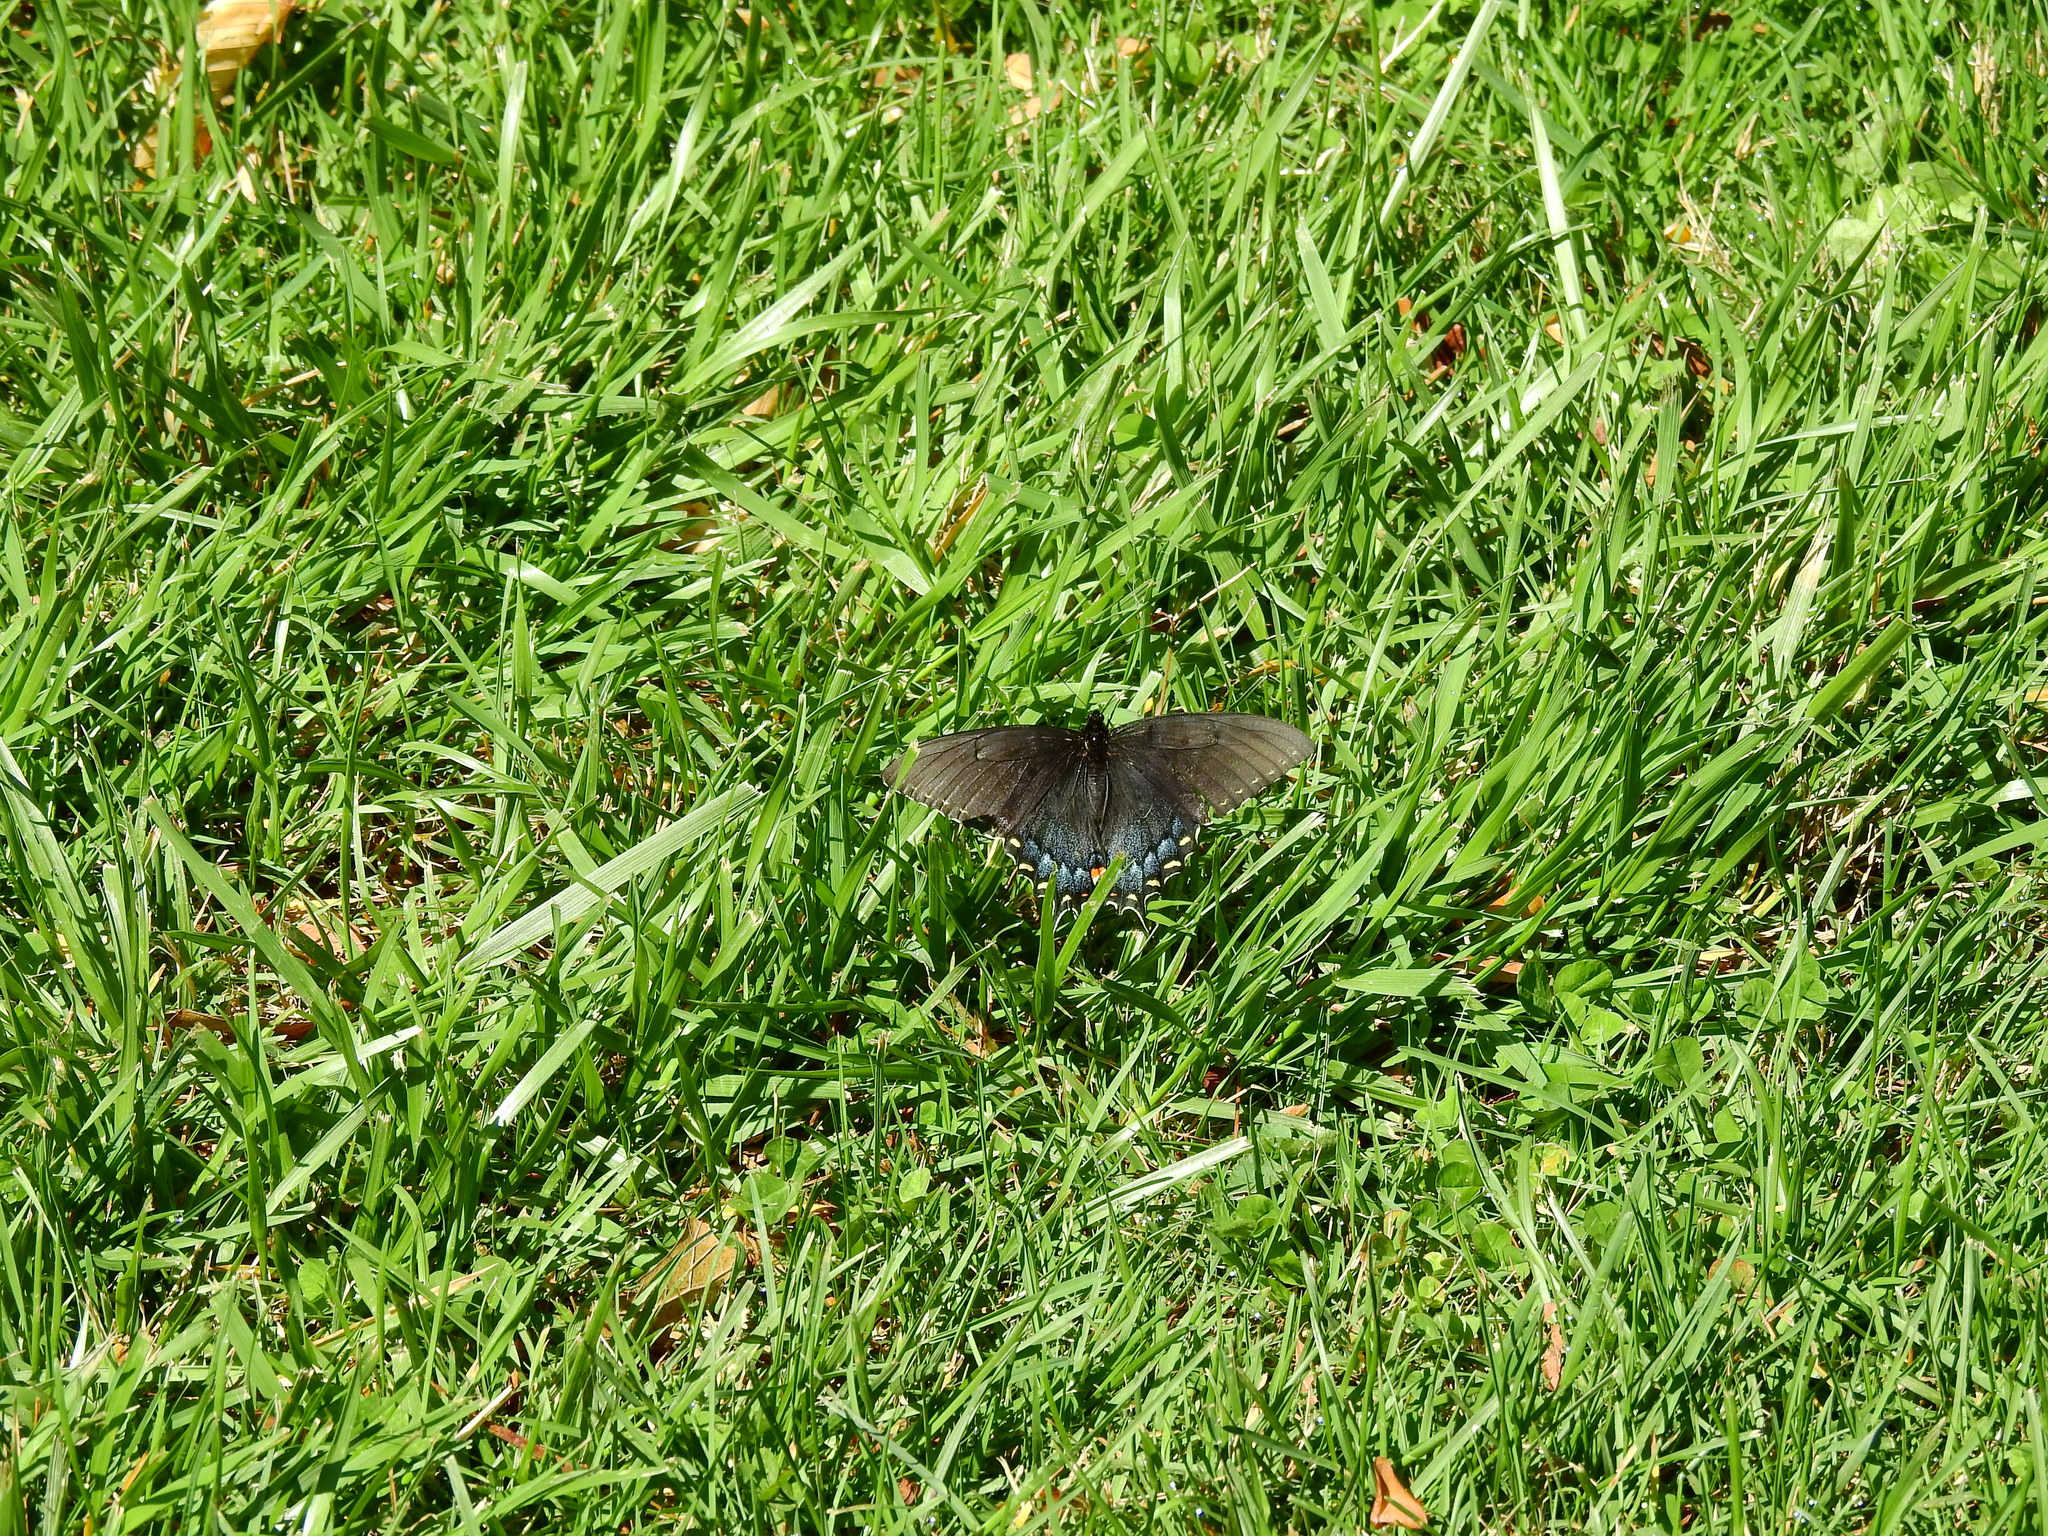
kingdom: Animalia
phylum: Arthropoda
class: Insecta
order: Lepidoptera
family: Papilionidae
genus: Papilio
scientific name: Papilio glaucus
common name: Tiger swallowtail
